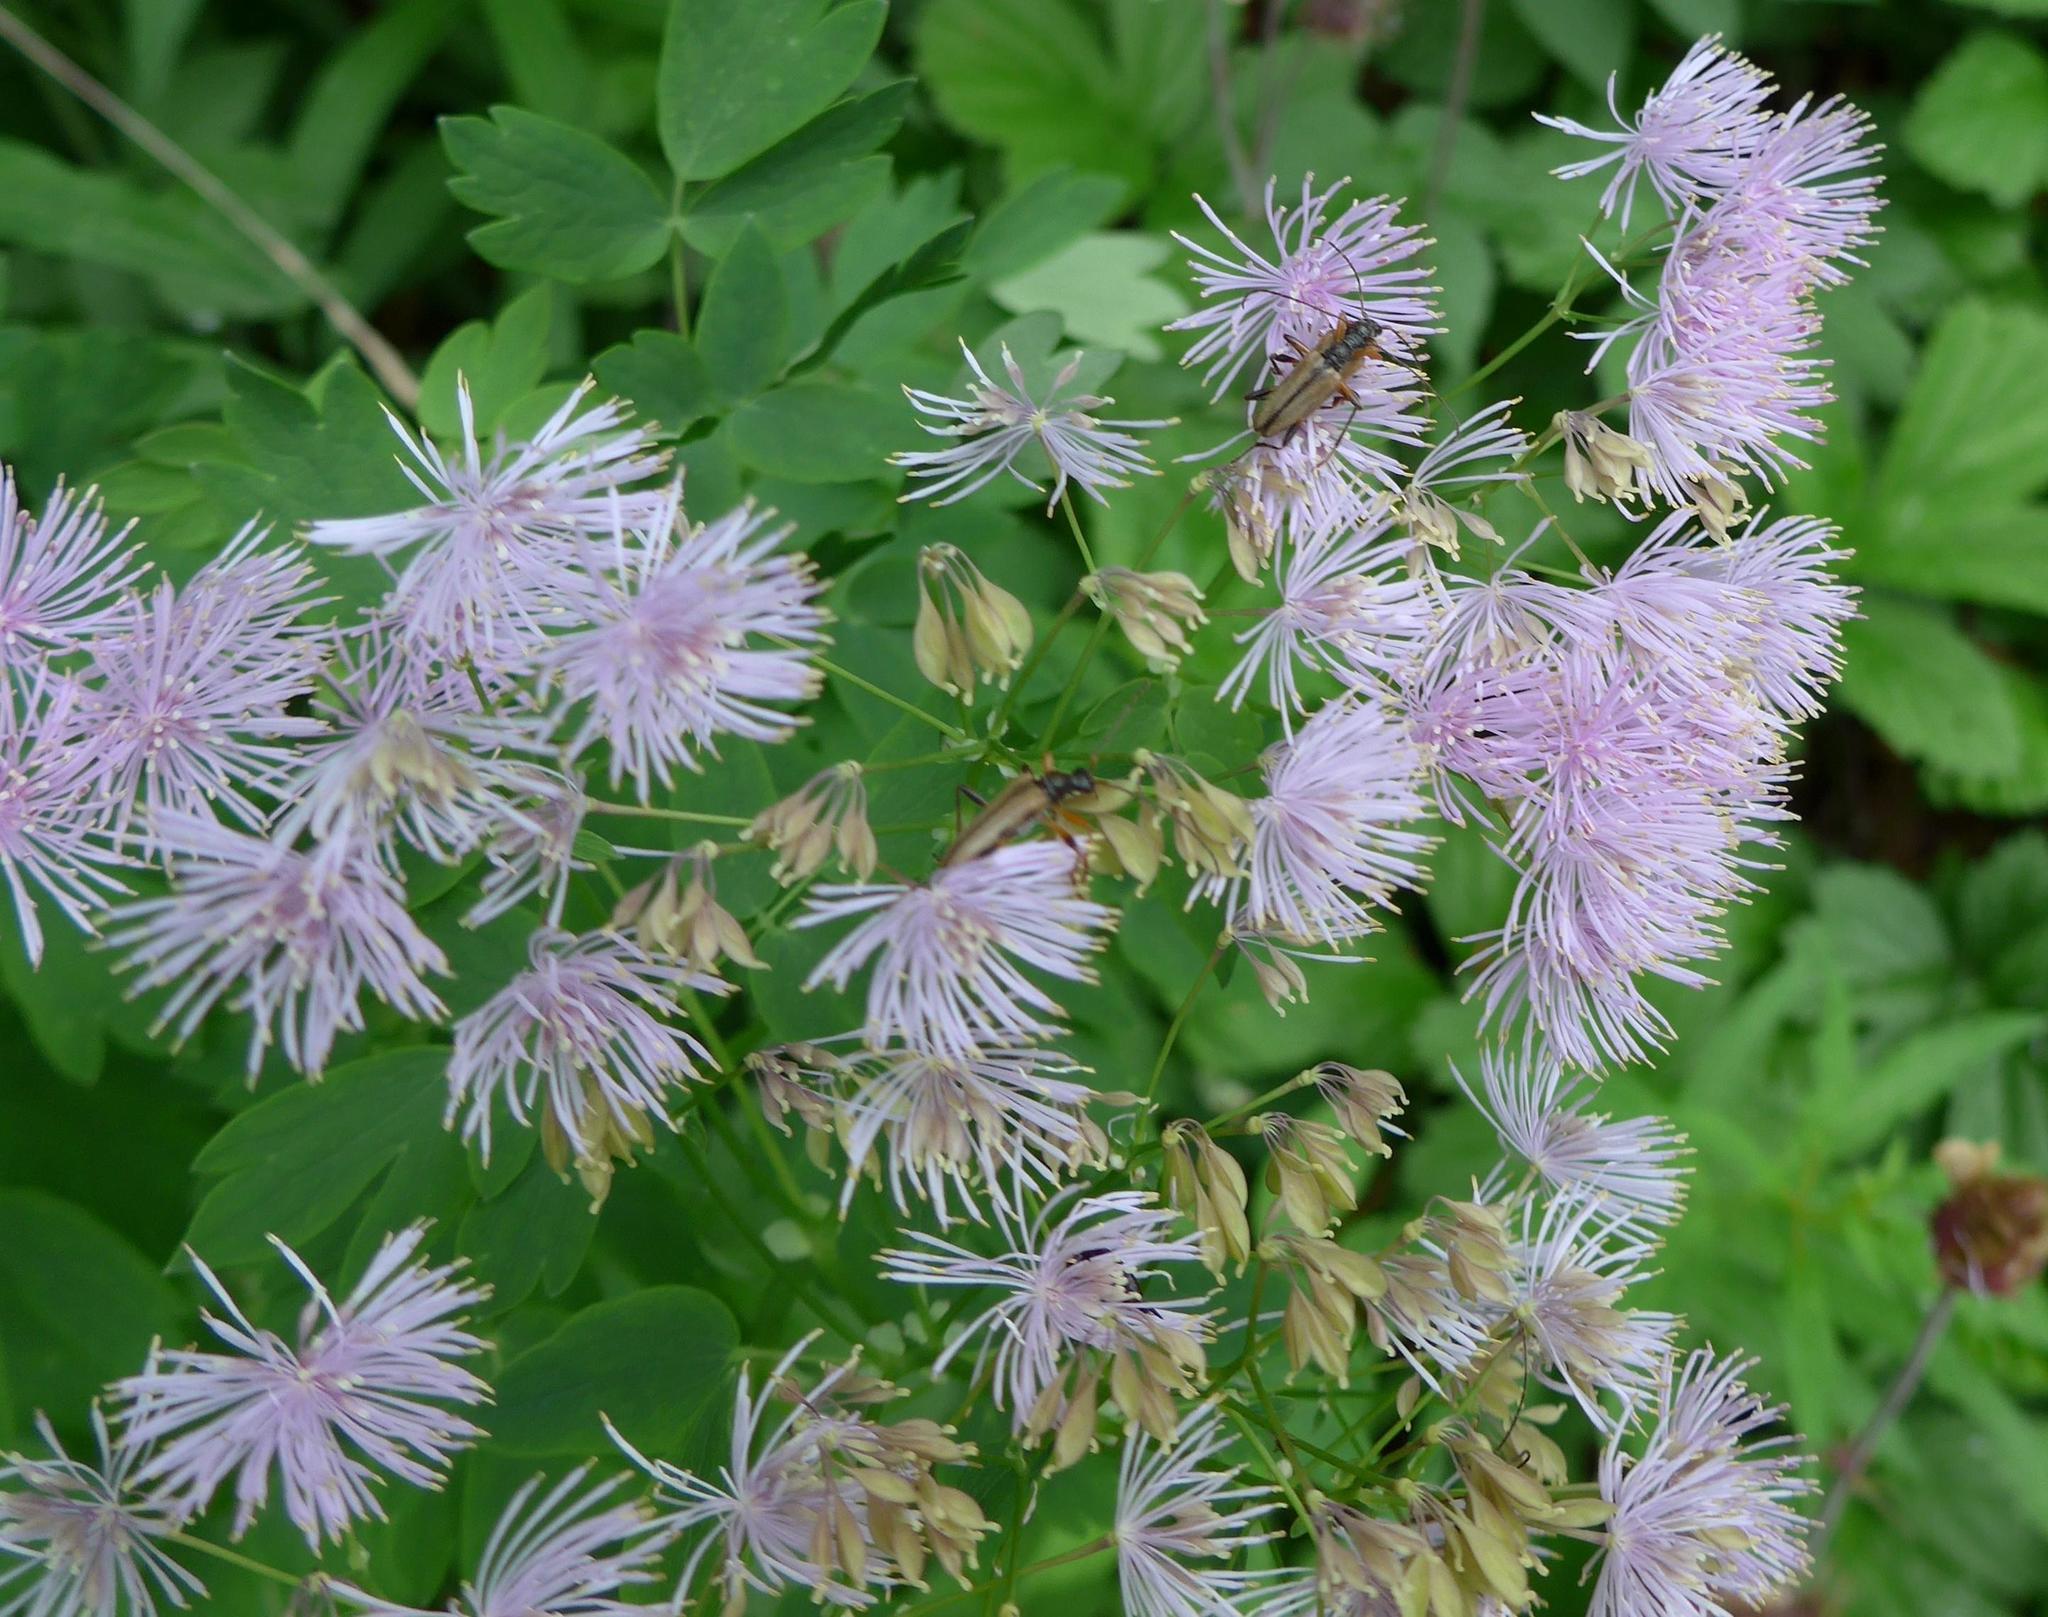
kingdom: Plantae
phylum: Tracheophyta
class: Magnoliopsida
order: Ranunculales
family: Ranunculaceae
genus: Thalictrum
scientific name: Thalictrum aquilegiifolium
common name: French meadow-rue
